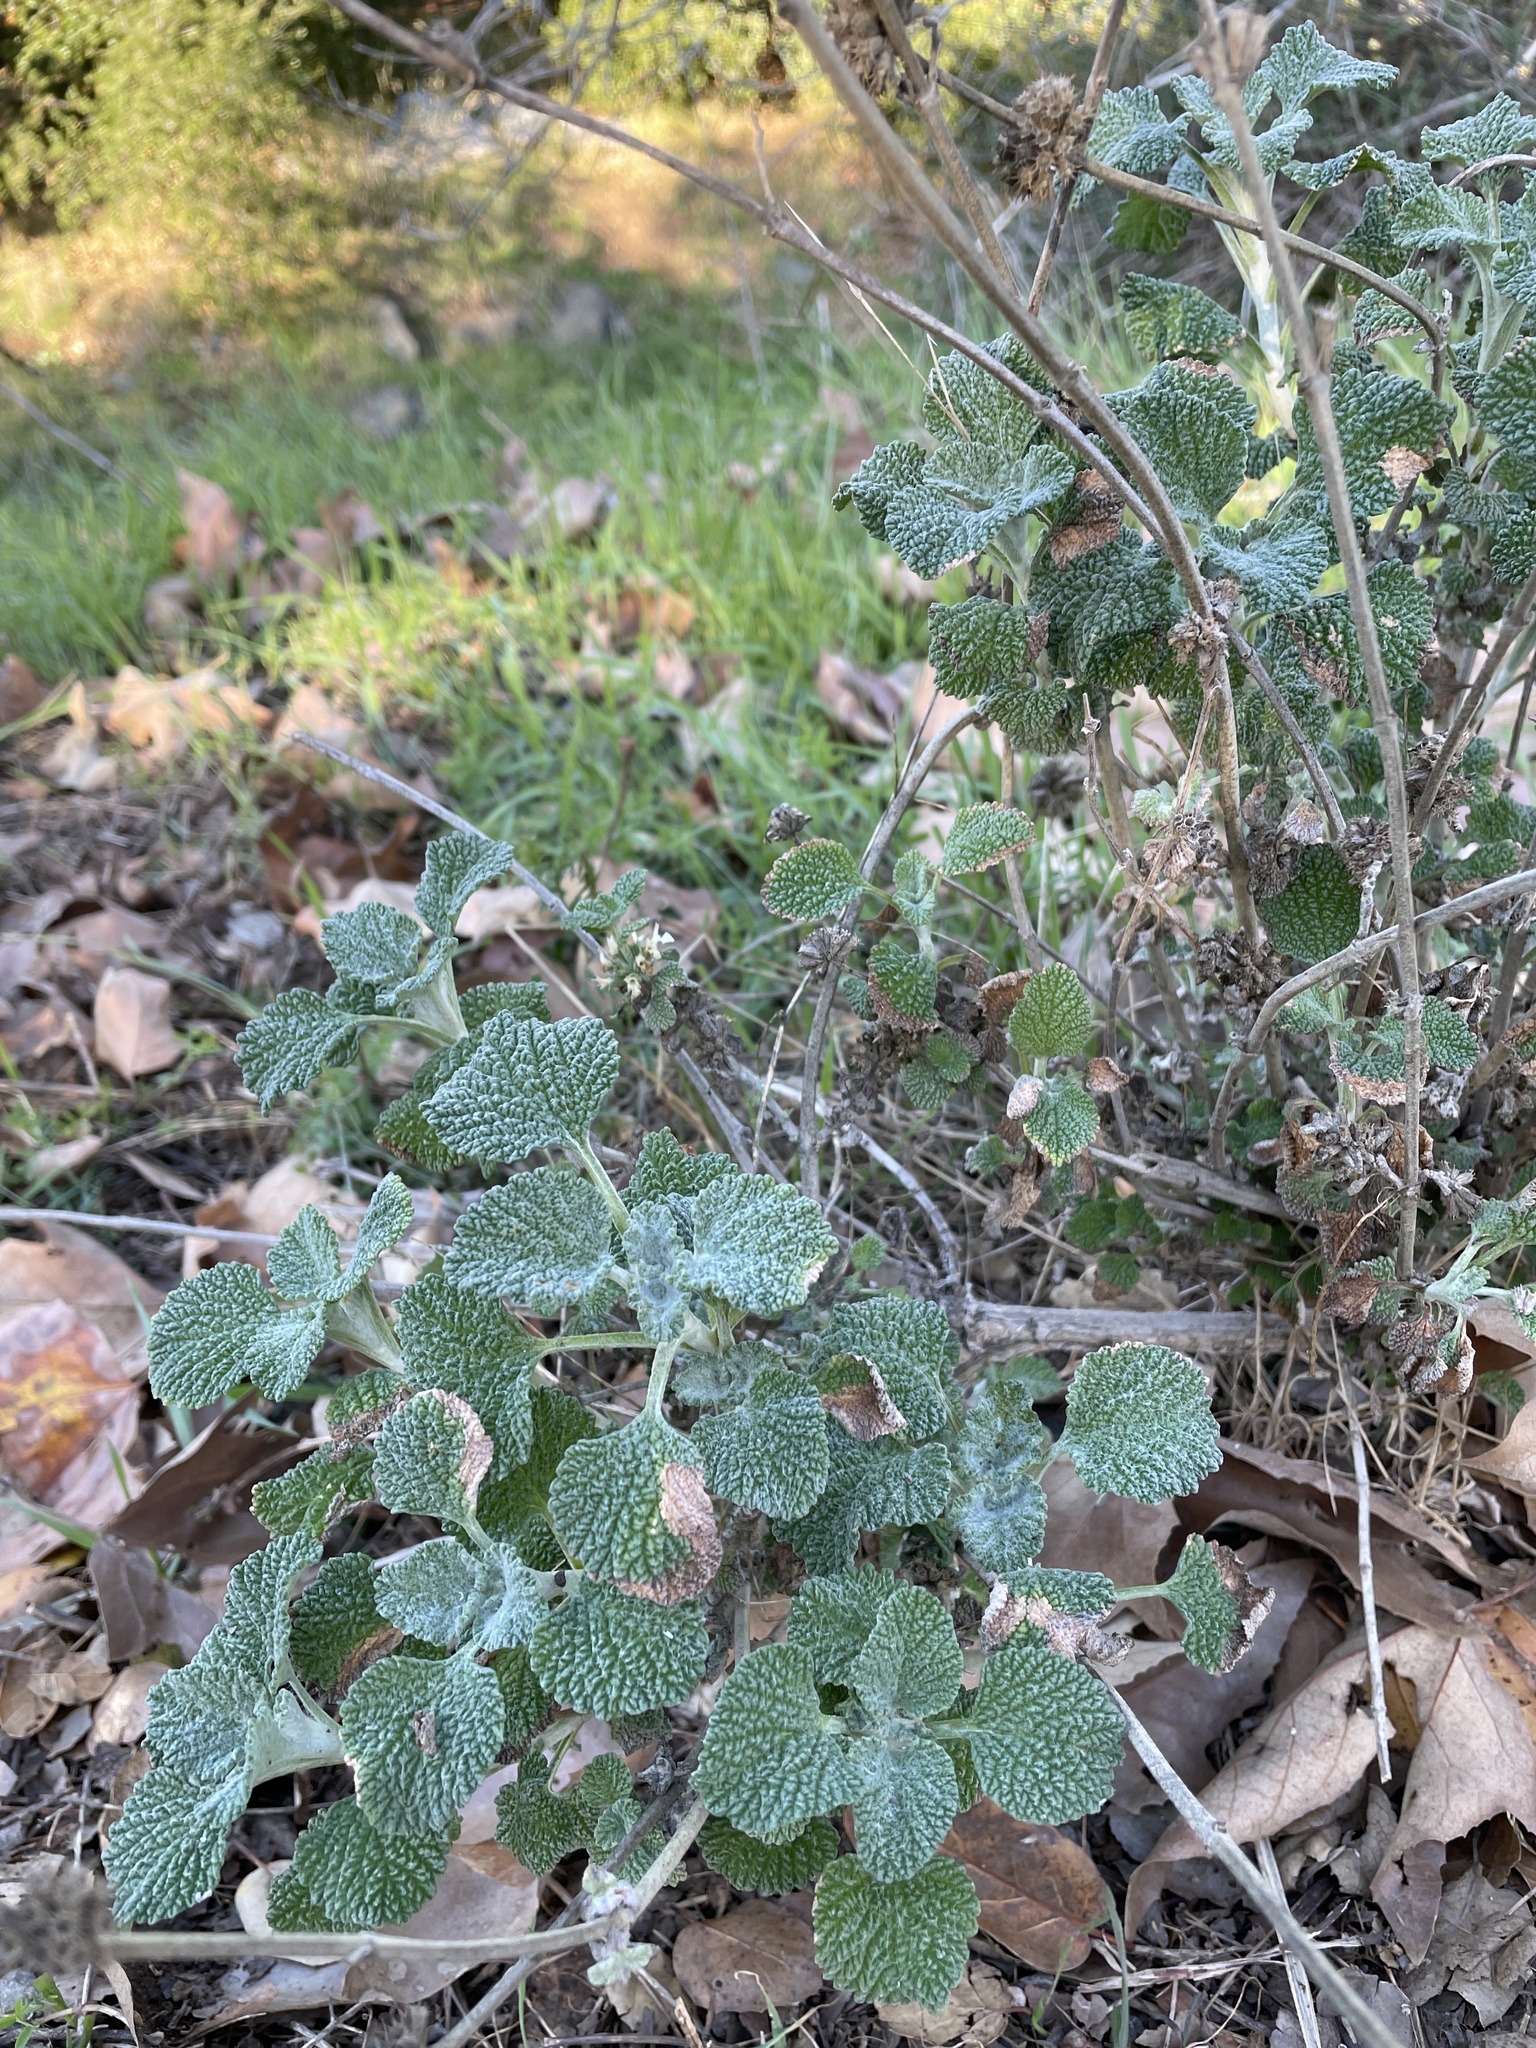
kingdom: Plantae
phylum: Tracheophyta
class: Magnoliopsida
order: Lamiales
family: Lamiaceae
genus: Marrubium
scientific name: Marrubium vulgare
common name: Horehound
